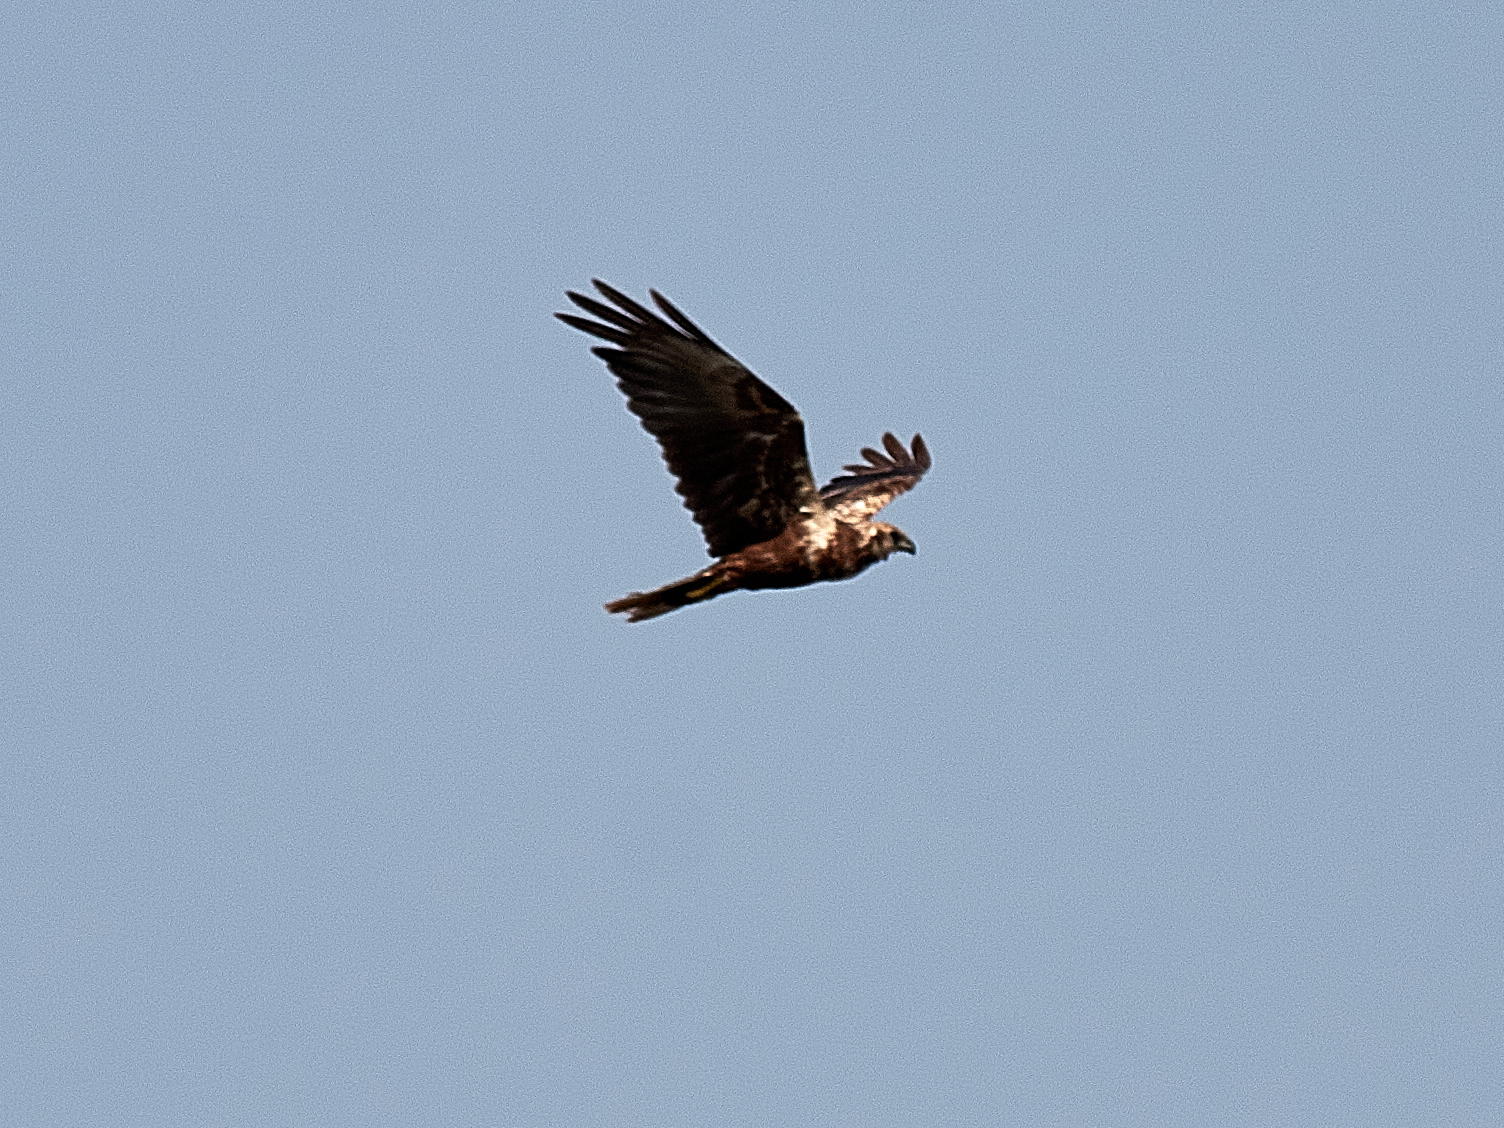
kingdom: Animalia
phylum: Chordata
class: Aves
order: Accipitriformes
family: Accipitridae
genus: Circus
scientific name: Circus aeruginosus
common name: Western marsh harrier
